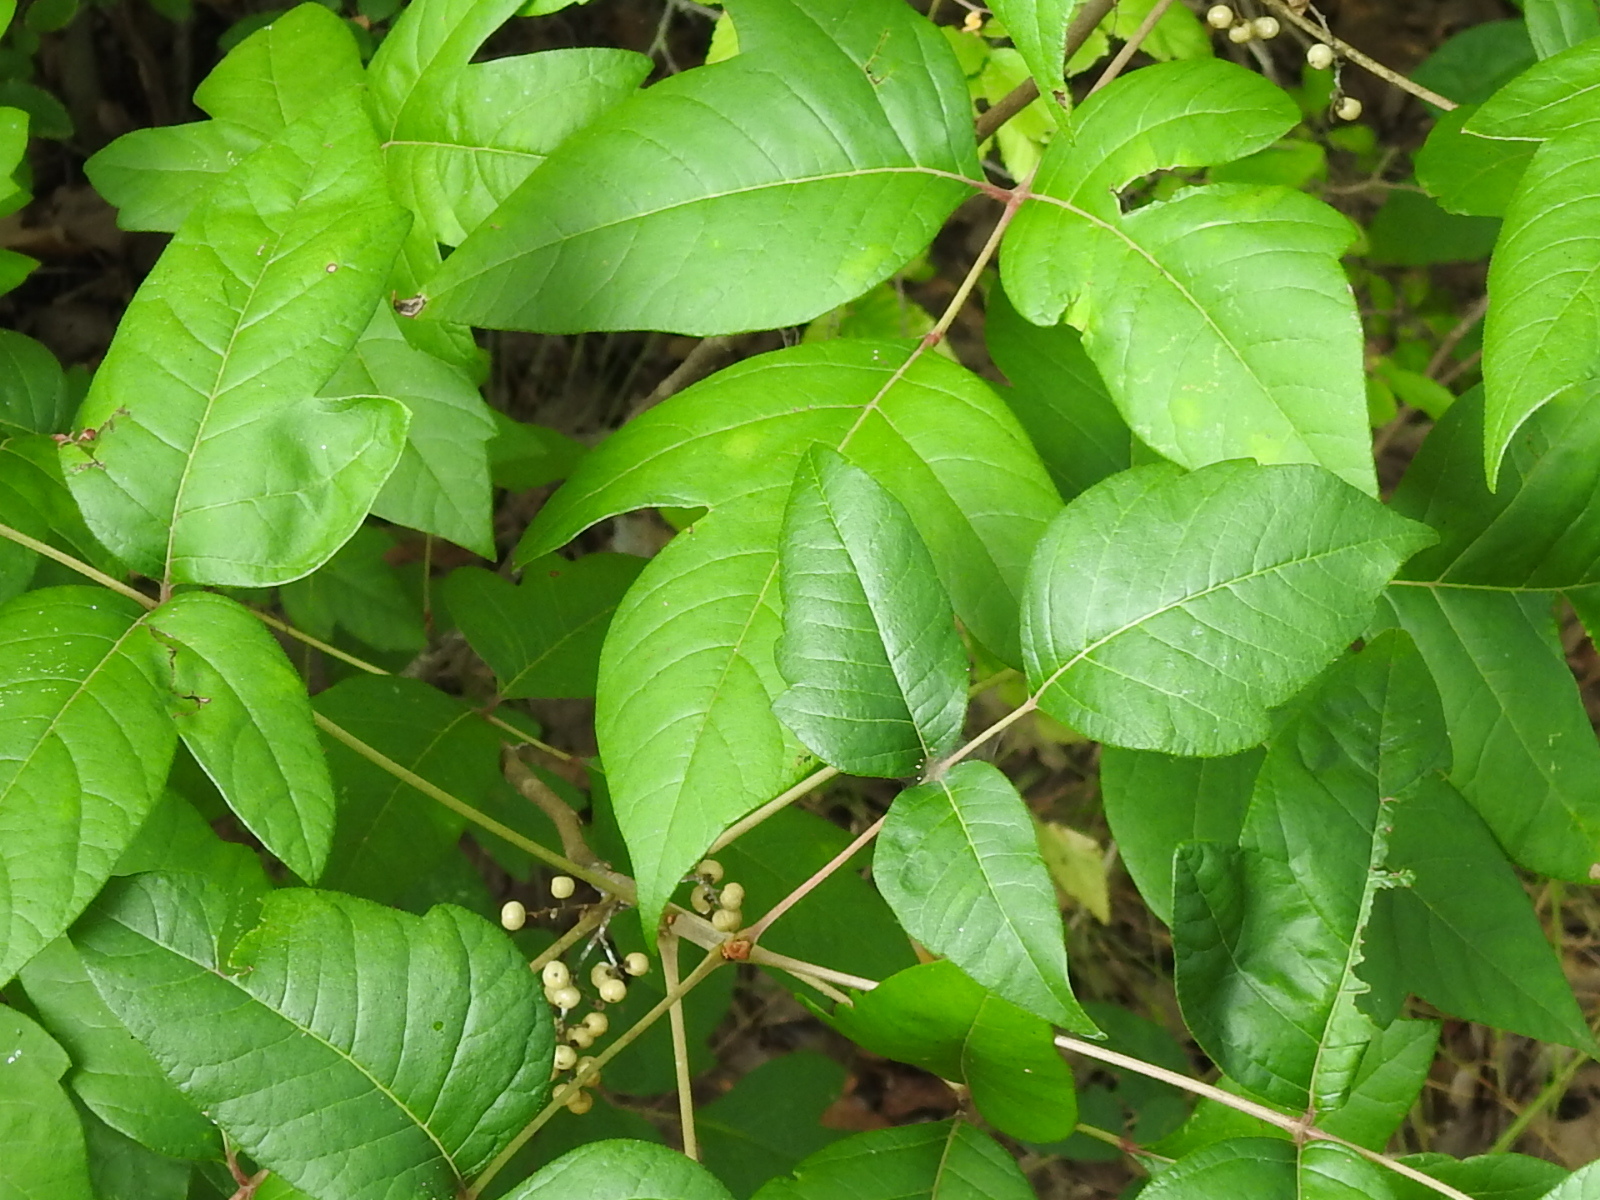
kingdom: Plantae
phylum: Tracheophyta
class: Magnoliopsida
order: Sapindales
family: Anacardiaceae
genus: Toxicodendron
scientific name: Toxicodendron radicans
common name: Poison ivy
